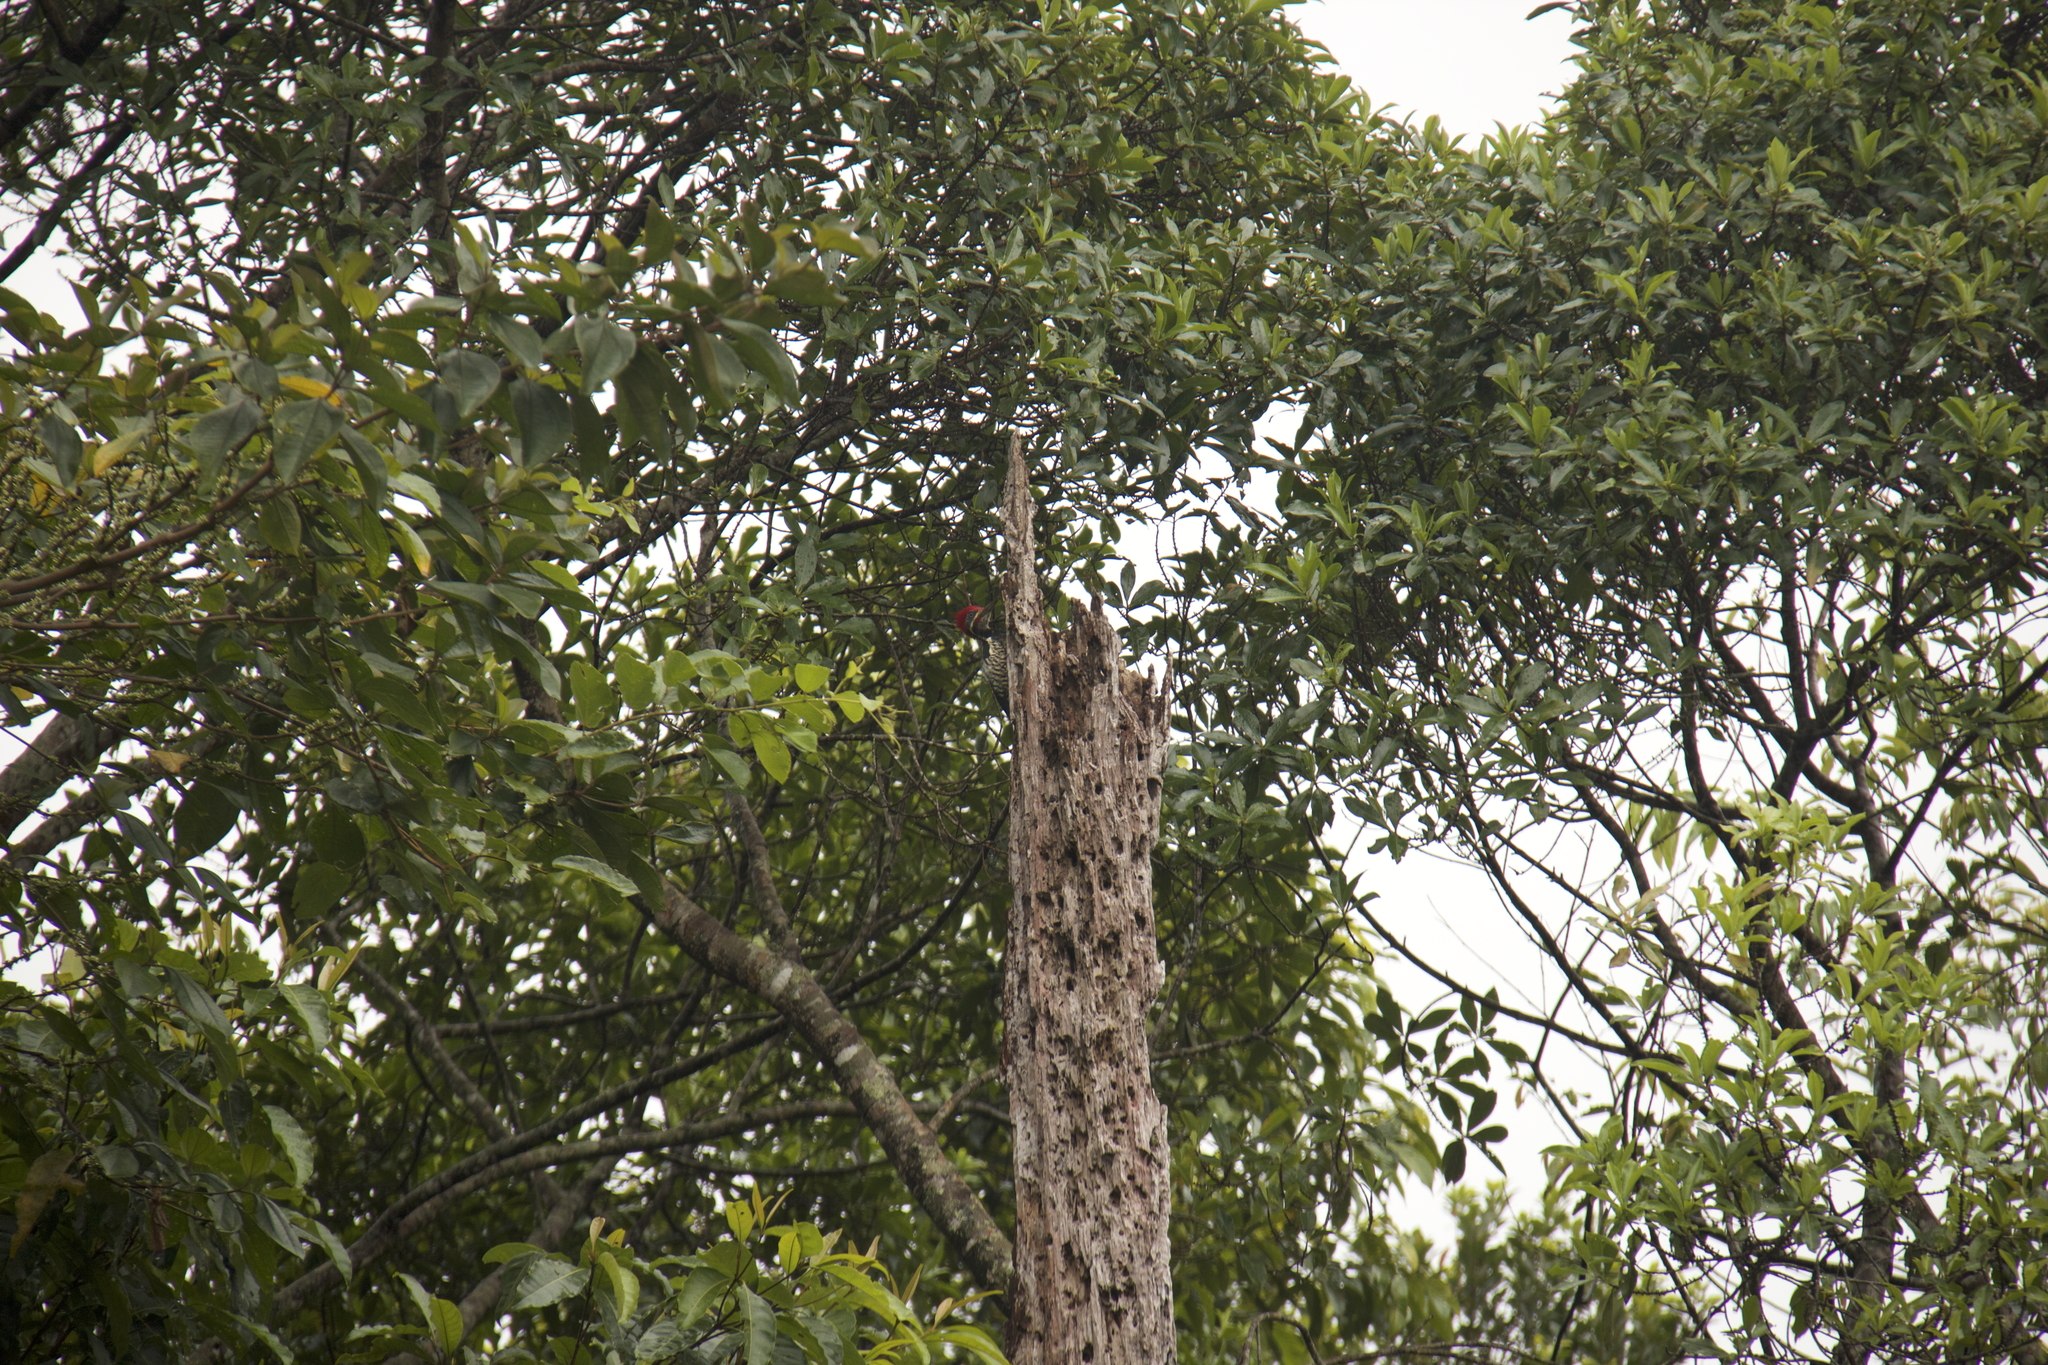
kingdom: Animalia
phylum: Chordata
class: Aves
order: Piciformes
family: Picidae
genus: Dryocopus
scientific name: Dryocopus lineatus
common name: Lineated woodpecker
